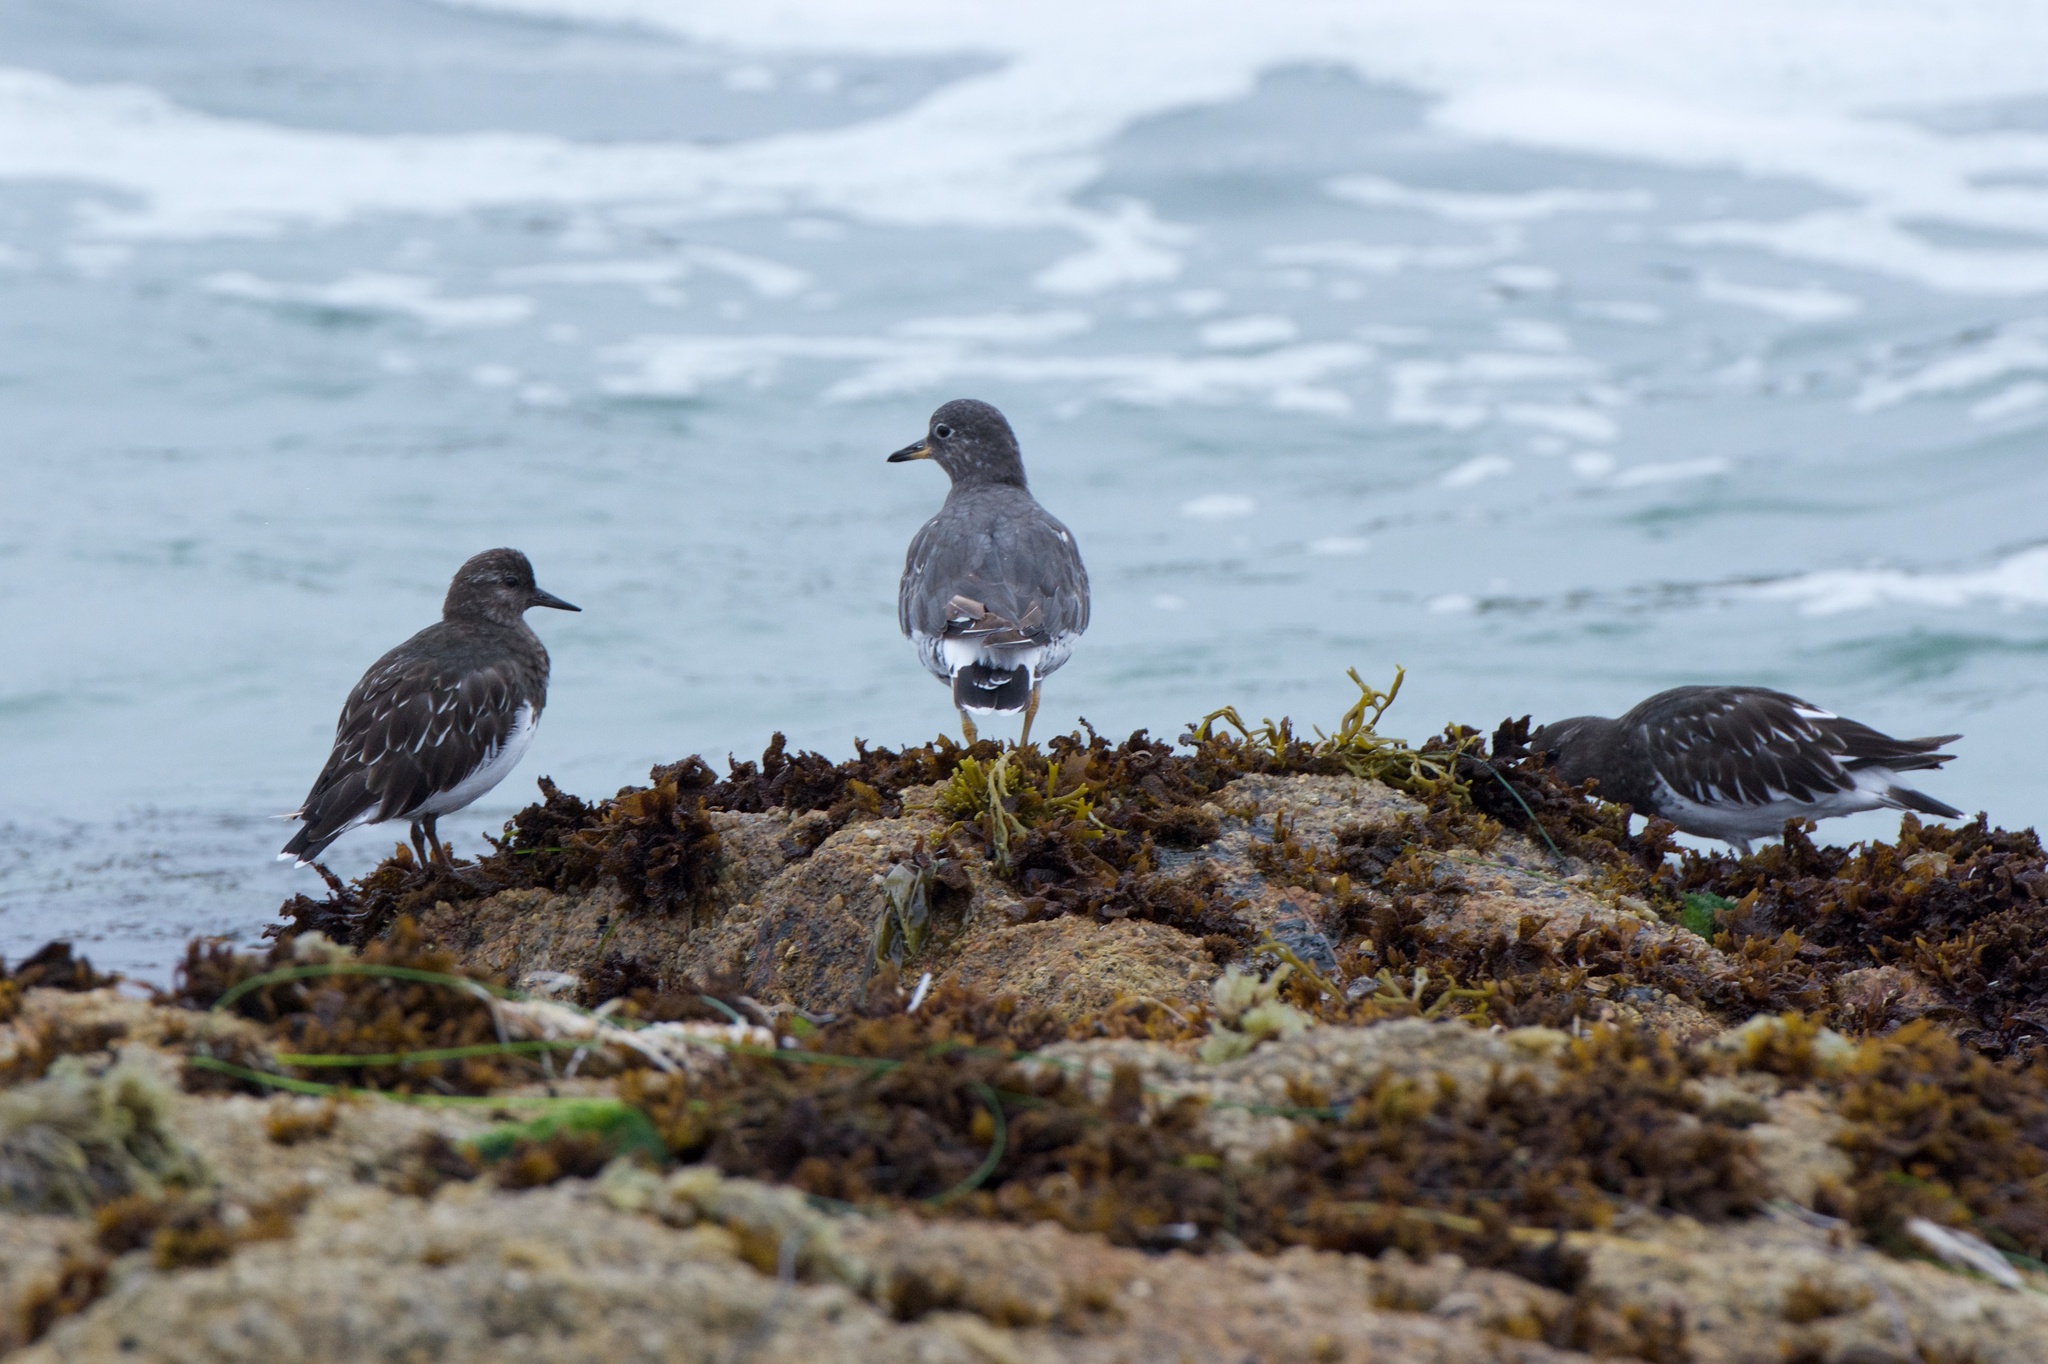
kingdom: Animalia
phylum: Chordata
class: Aves
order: Charadriiformes
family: Scolopacidae
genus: Arenaria
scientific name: Arenaria melanocephala
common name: Black turnstone
